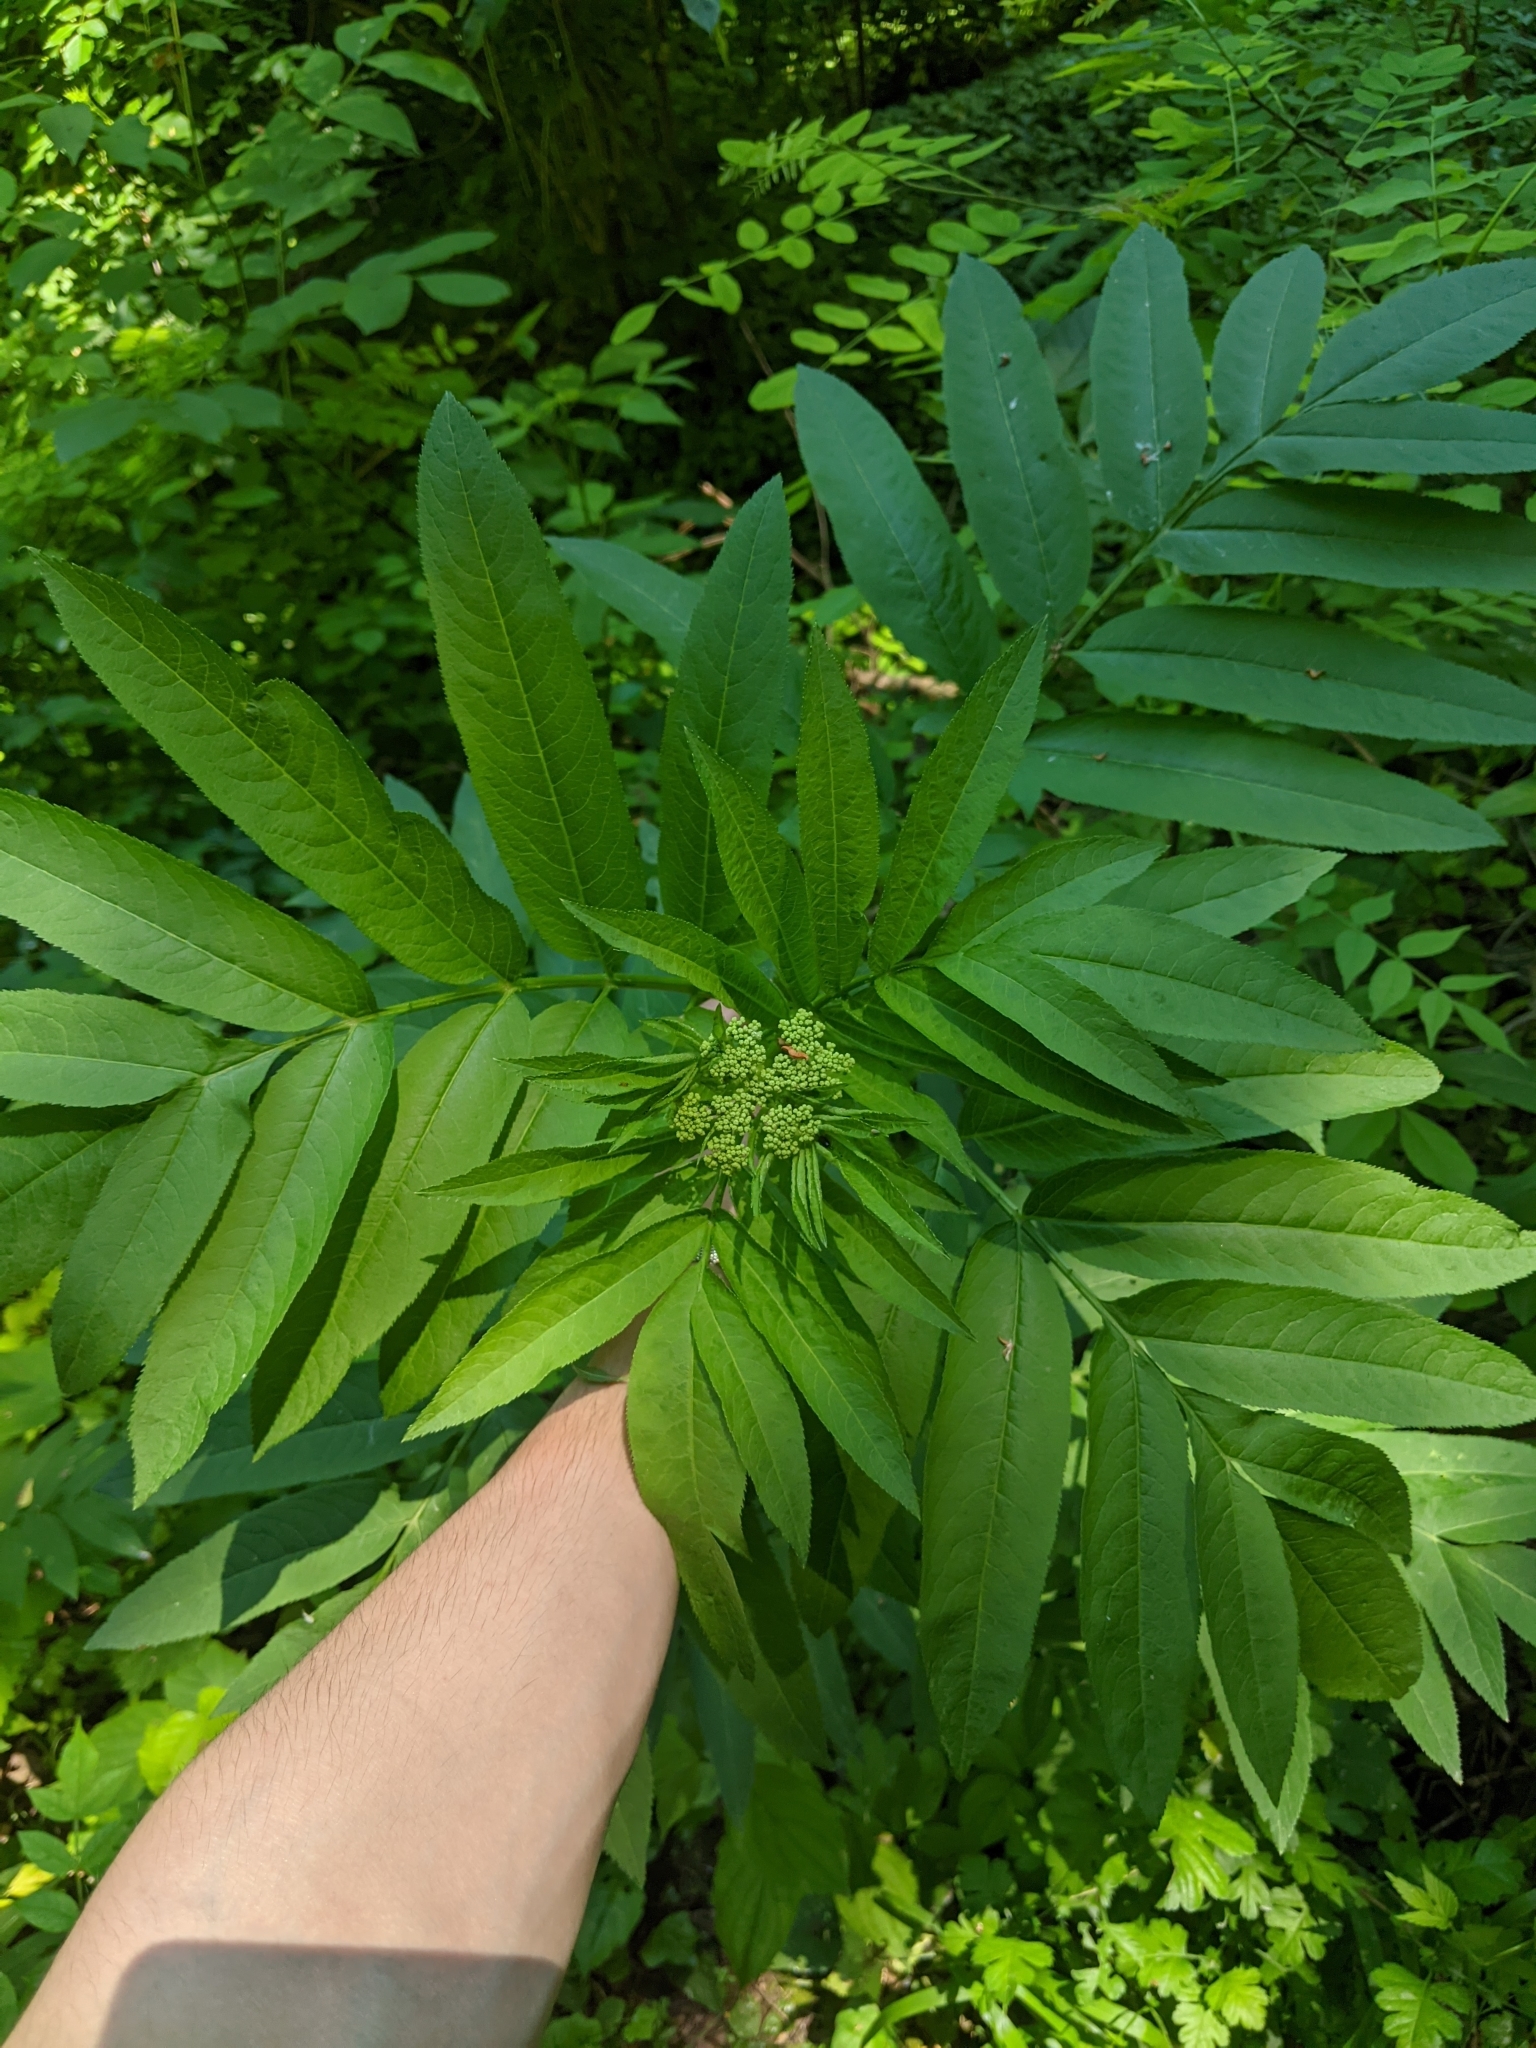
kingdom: Plantae
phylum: Tracheophyta
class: Magnoliopsida
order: Dipsacales
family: Viburnaceae
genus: Sambucus
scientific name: Sambucus ebulus
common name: Dwarf elder
